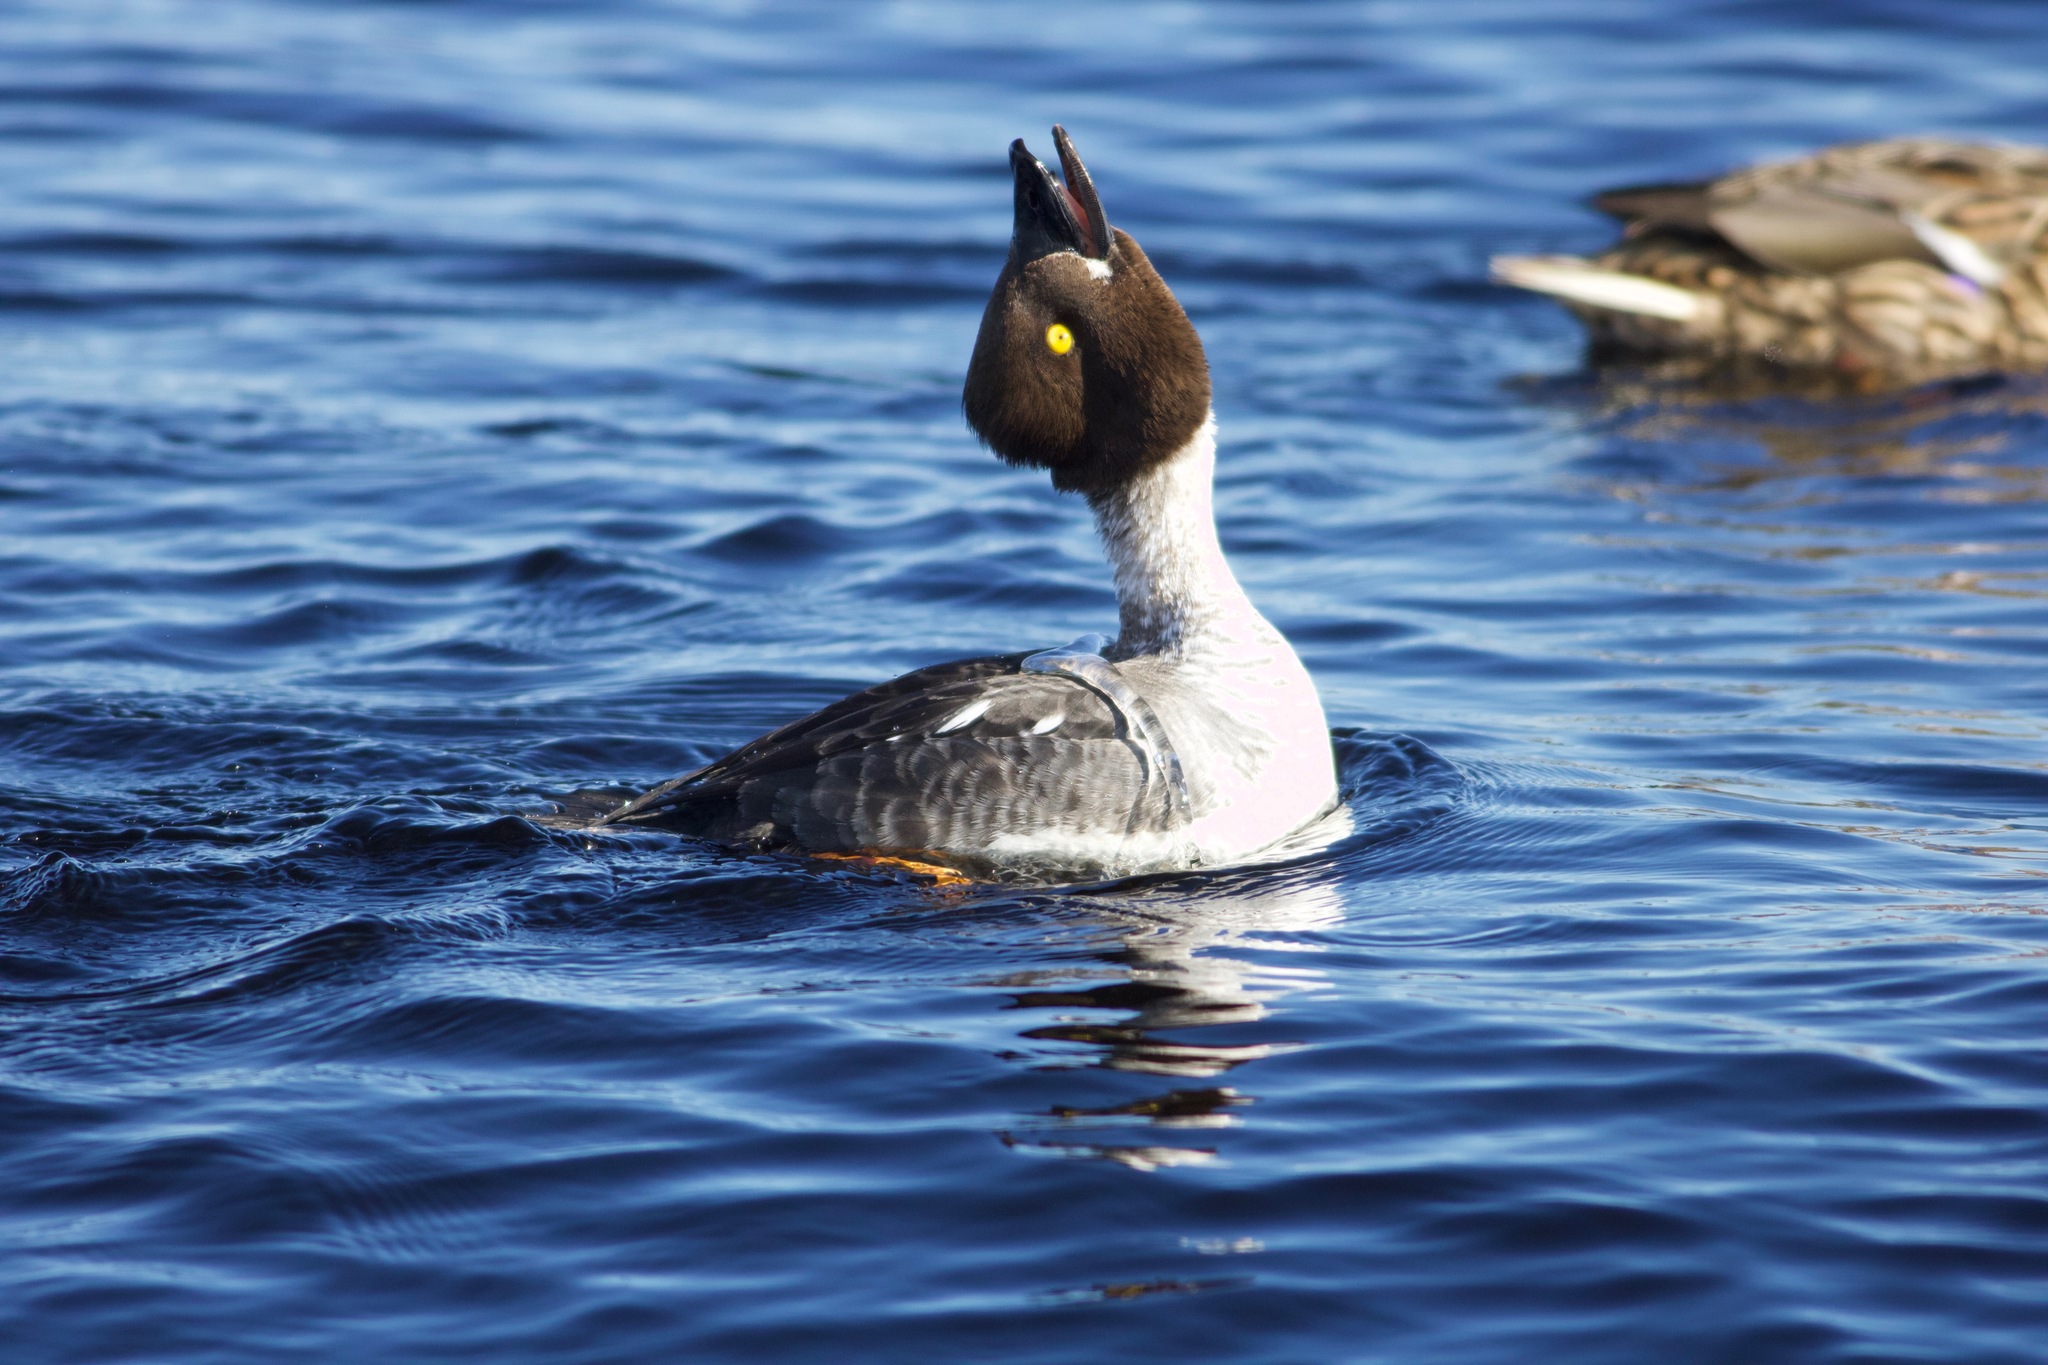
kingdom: Animalia
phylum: Chordata
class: Aves
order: Anseriformes
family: Anatidae
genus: Bucephala
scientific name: Bucephala clangula
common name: Common goldeneye
